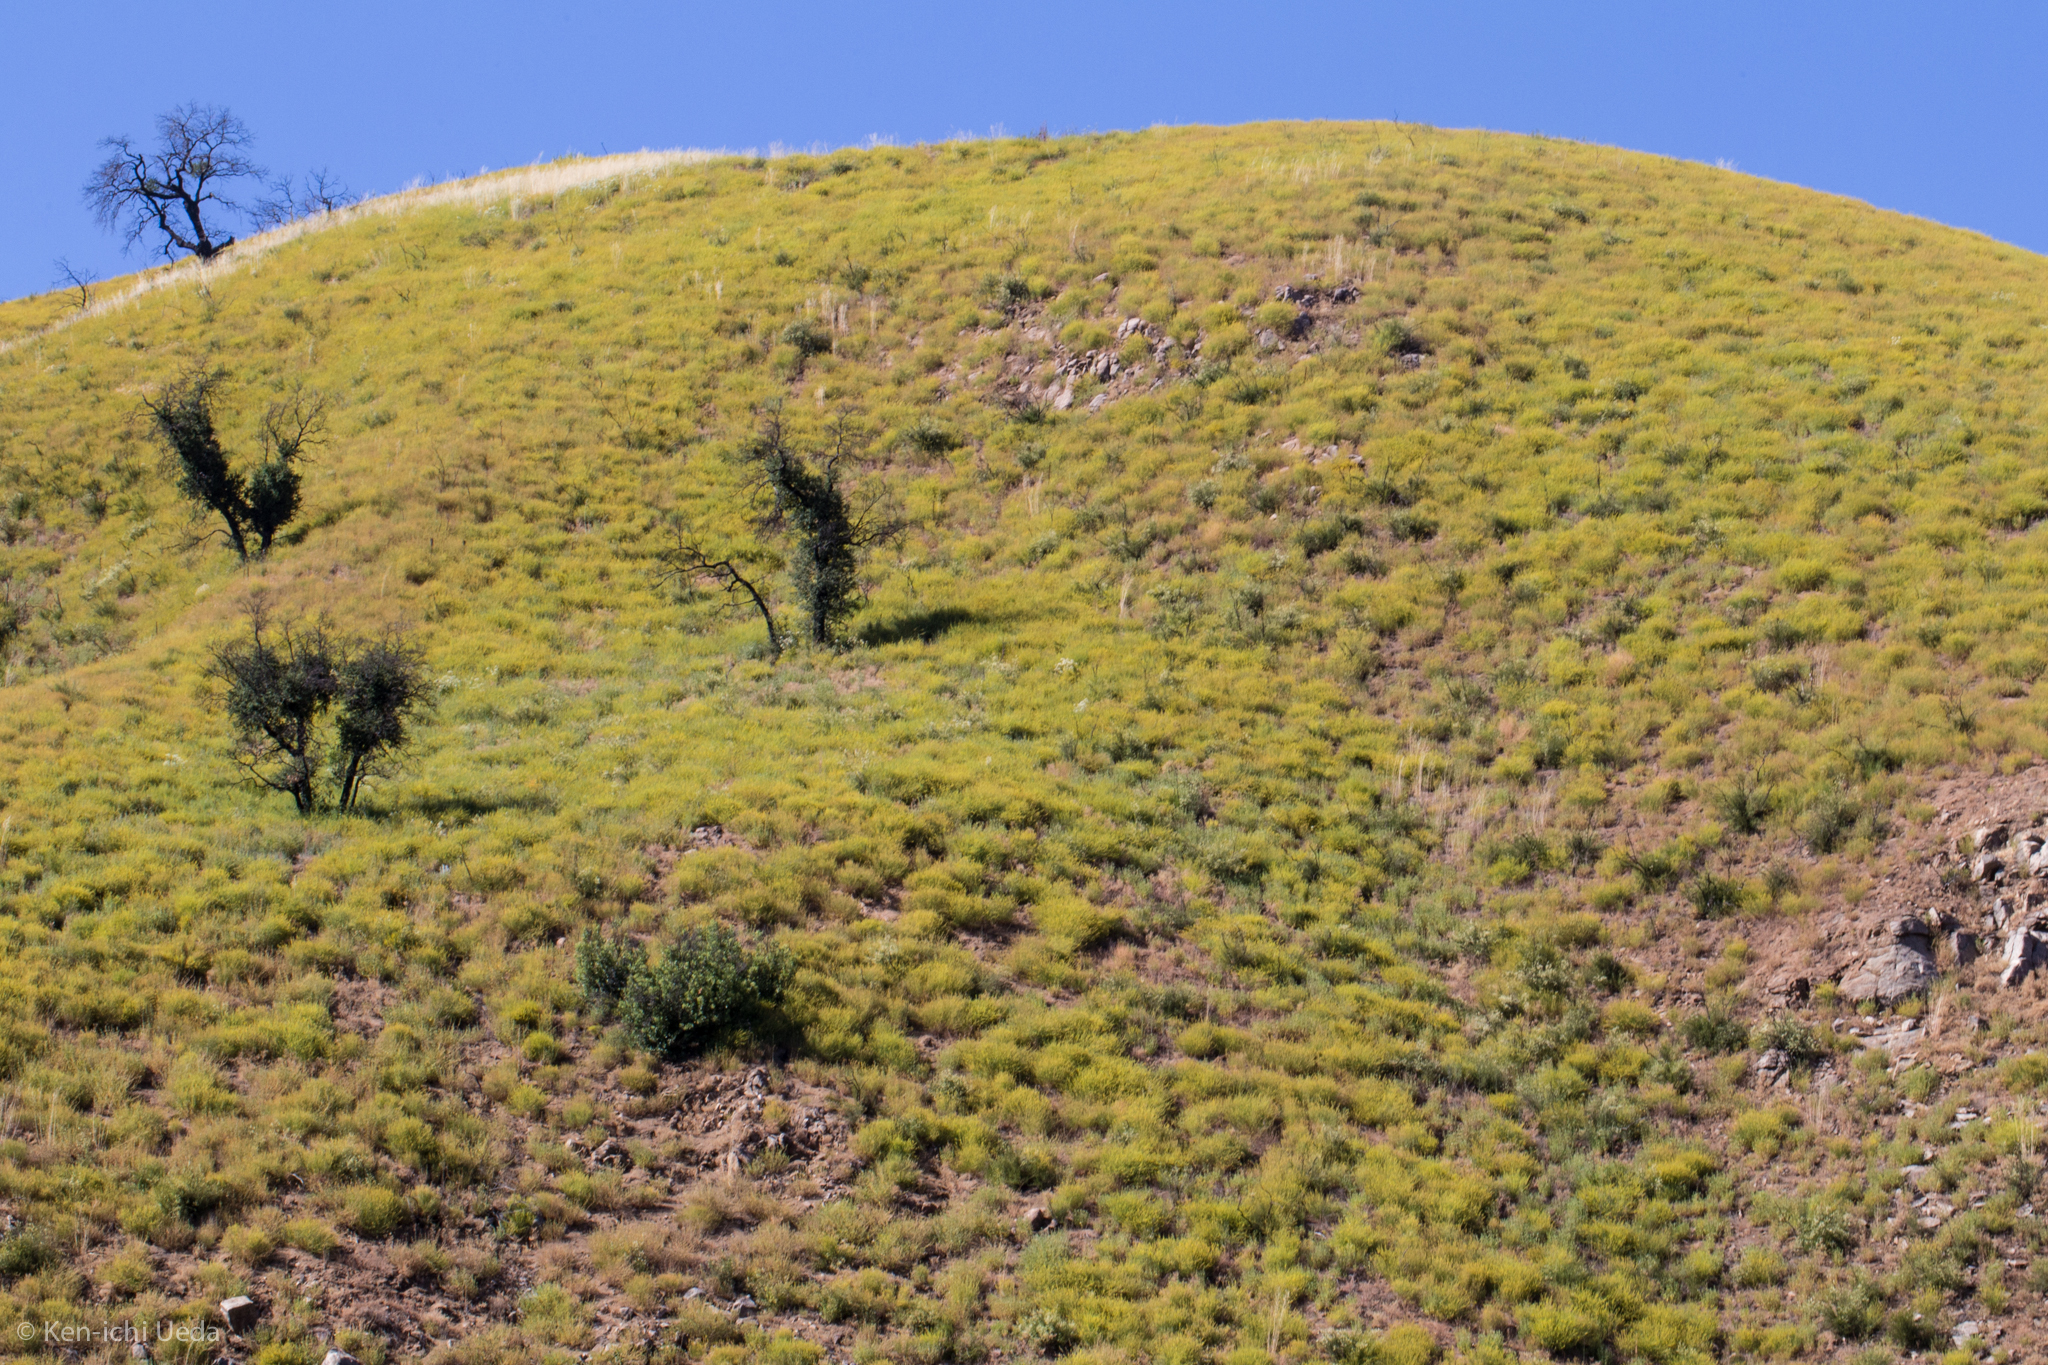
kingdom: Plantae
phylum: Tracheophyta
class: Magnoliopsida
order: Fabales
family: Fabaceae
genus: Acmispon
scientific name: Acmispon glaber
